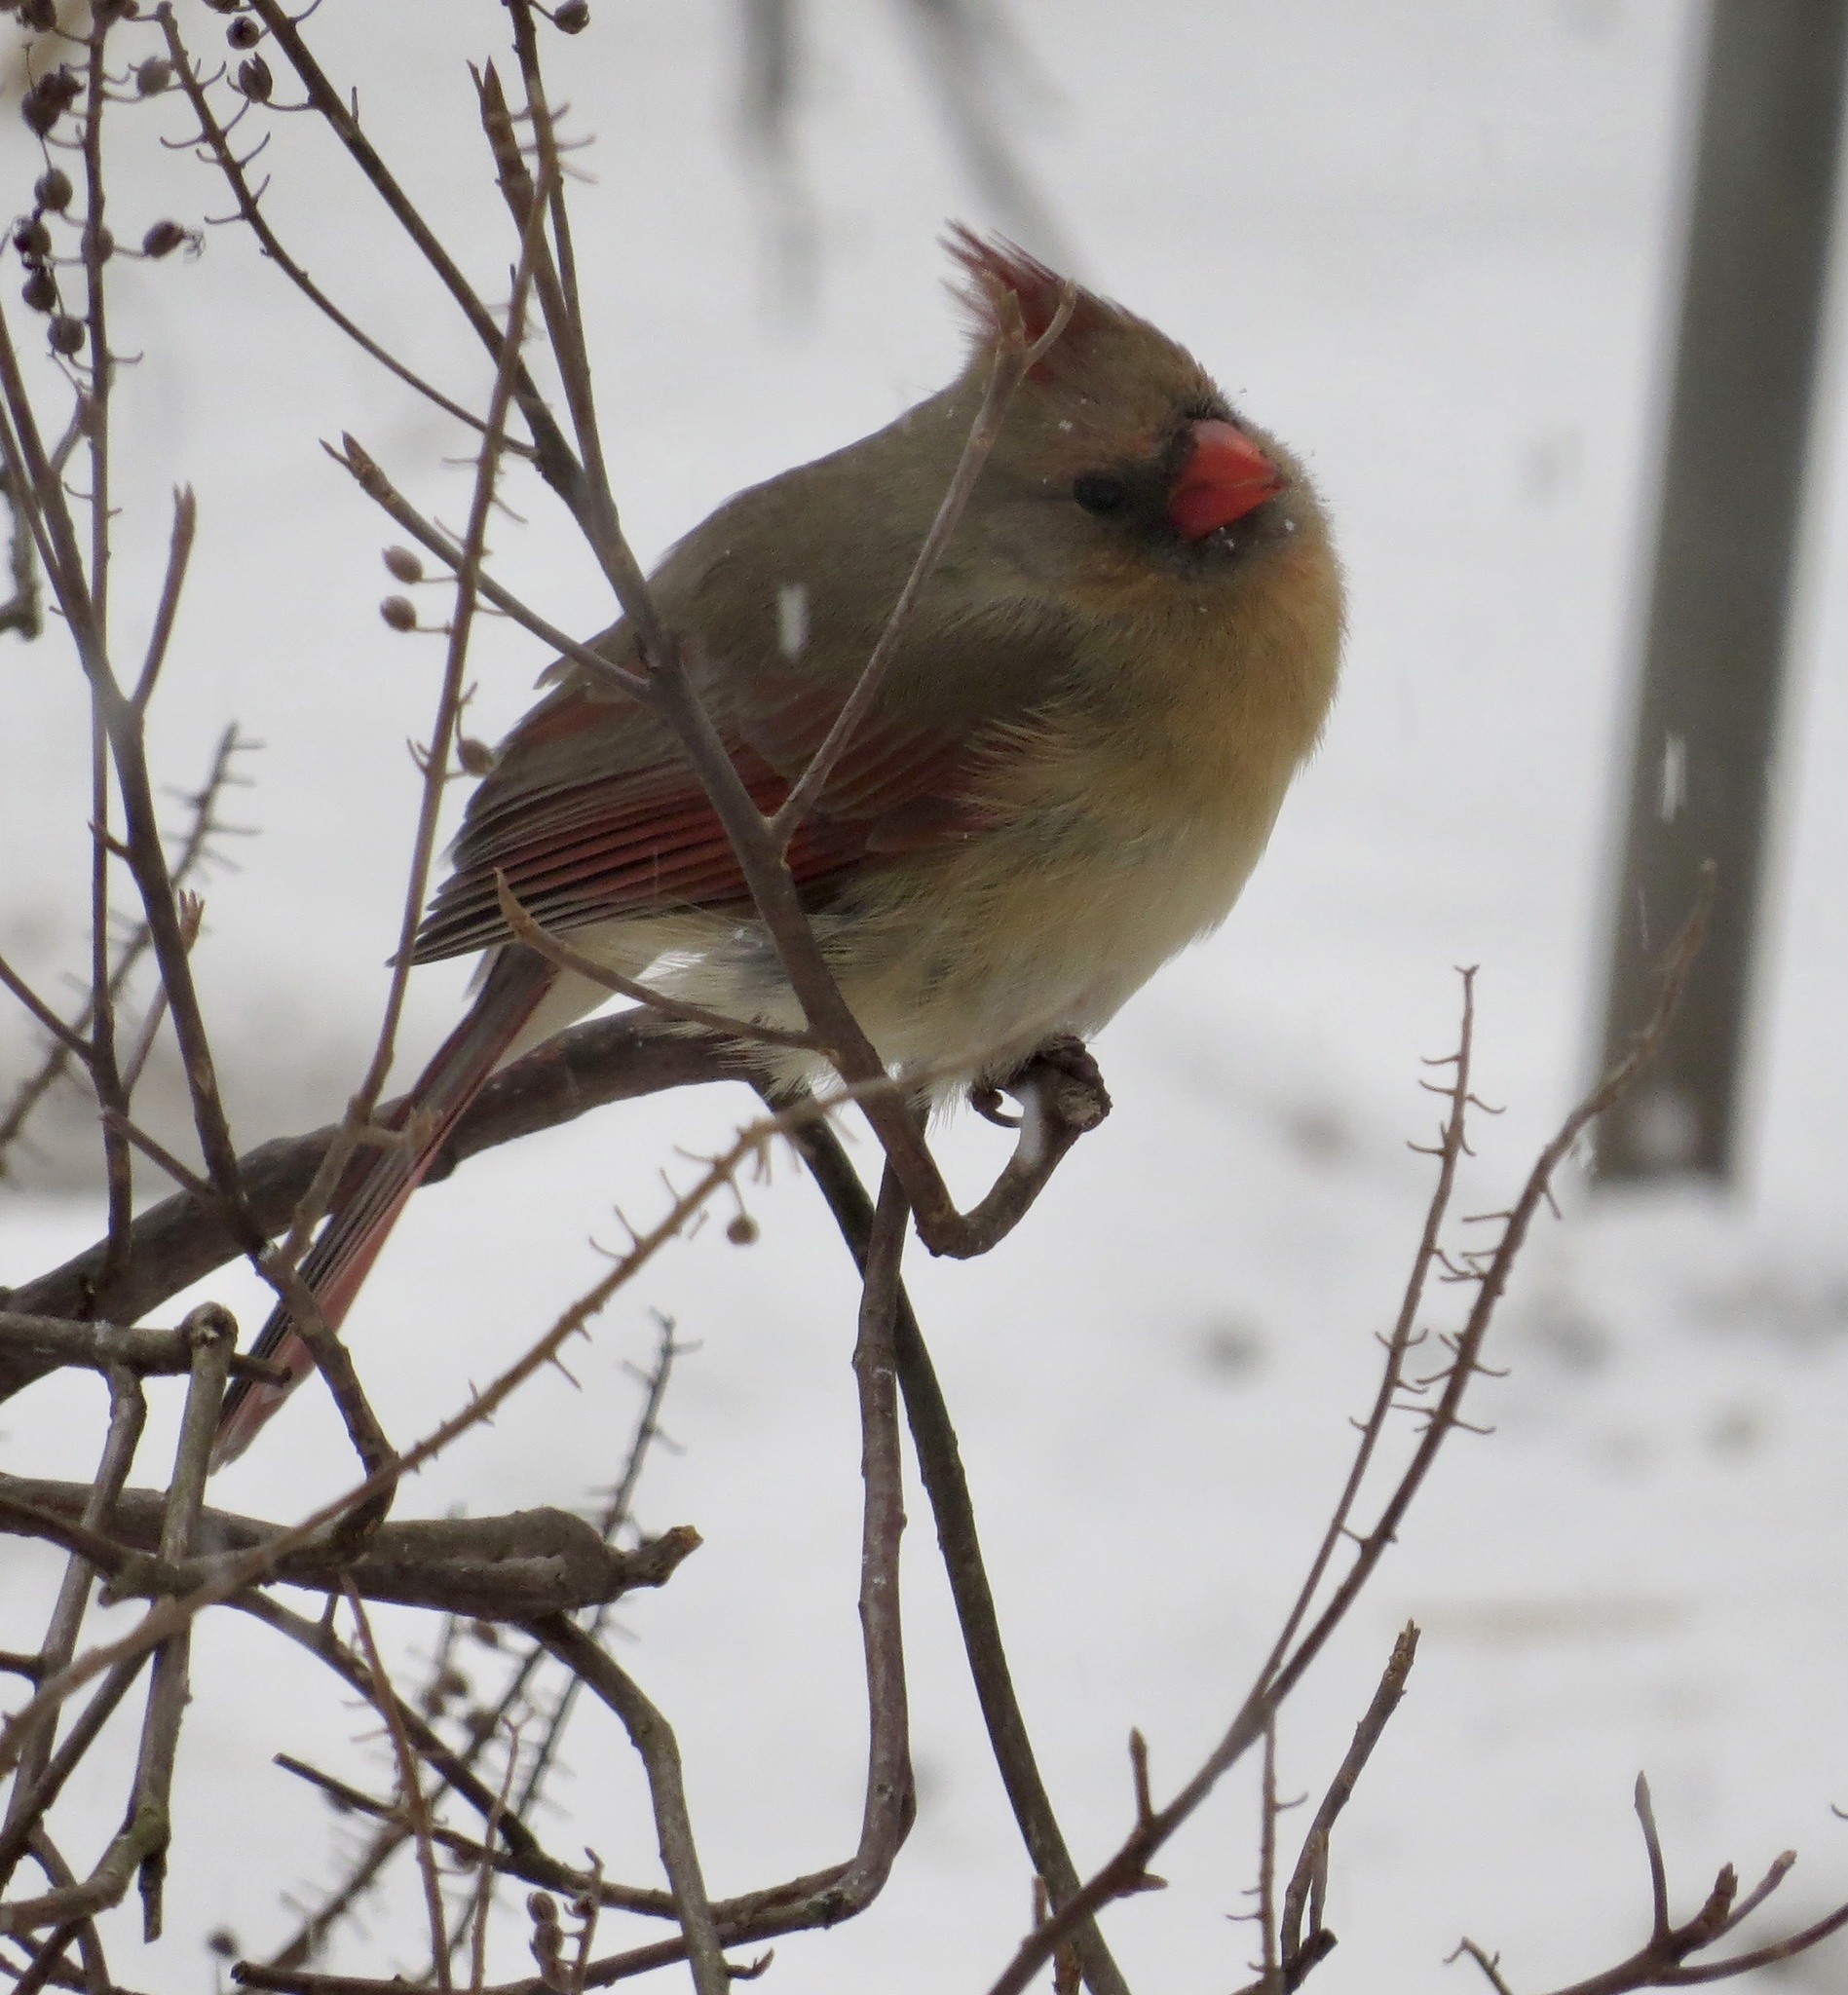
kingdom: Animalia
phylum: Chordata
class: Aves
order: Passeriformes
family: Cardinalidae
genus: Cardinalis
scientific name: Cardinalis cardinalis
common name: Northern cardinal
